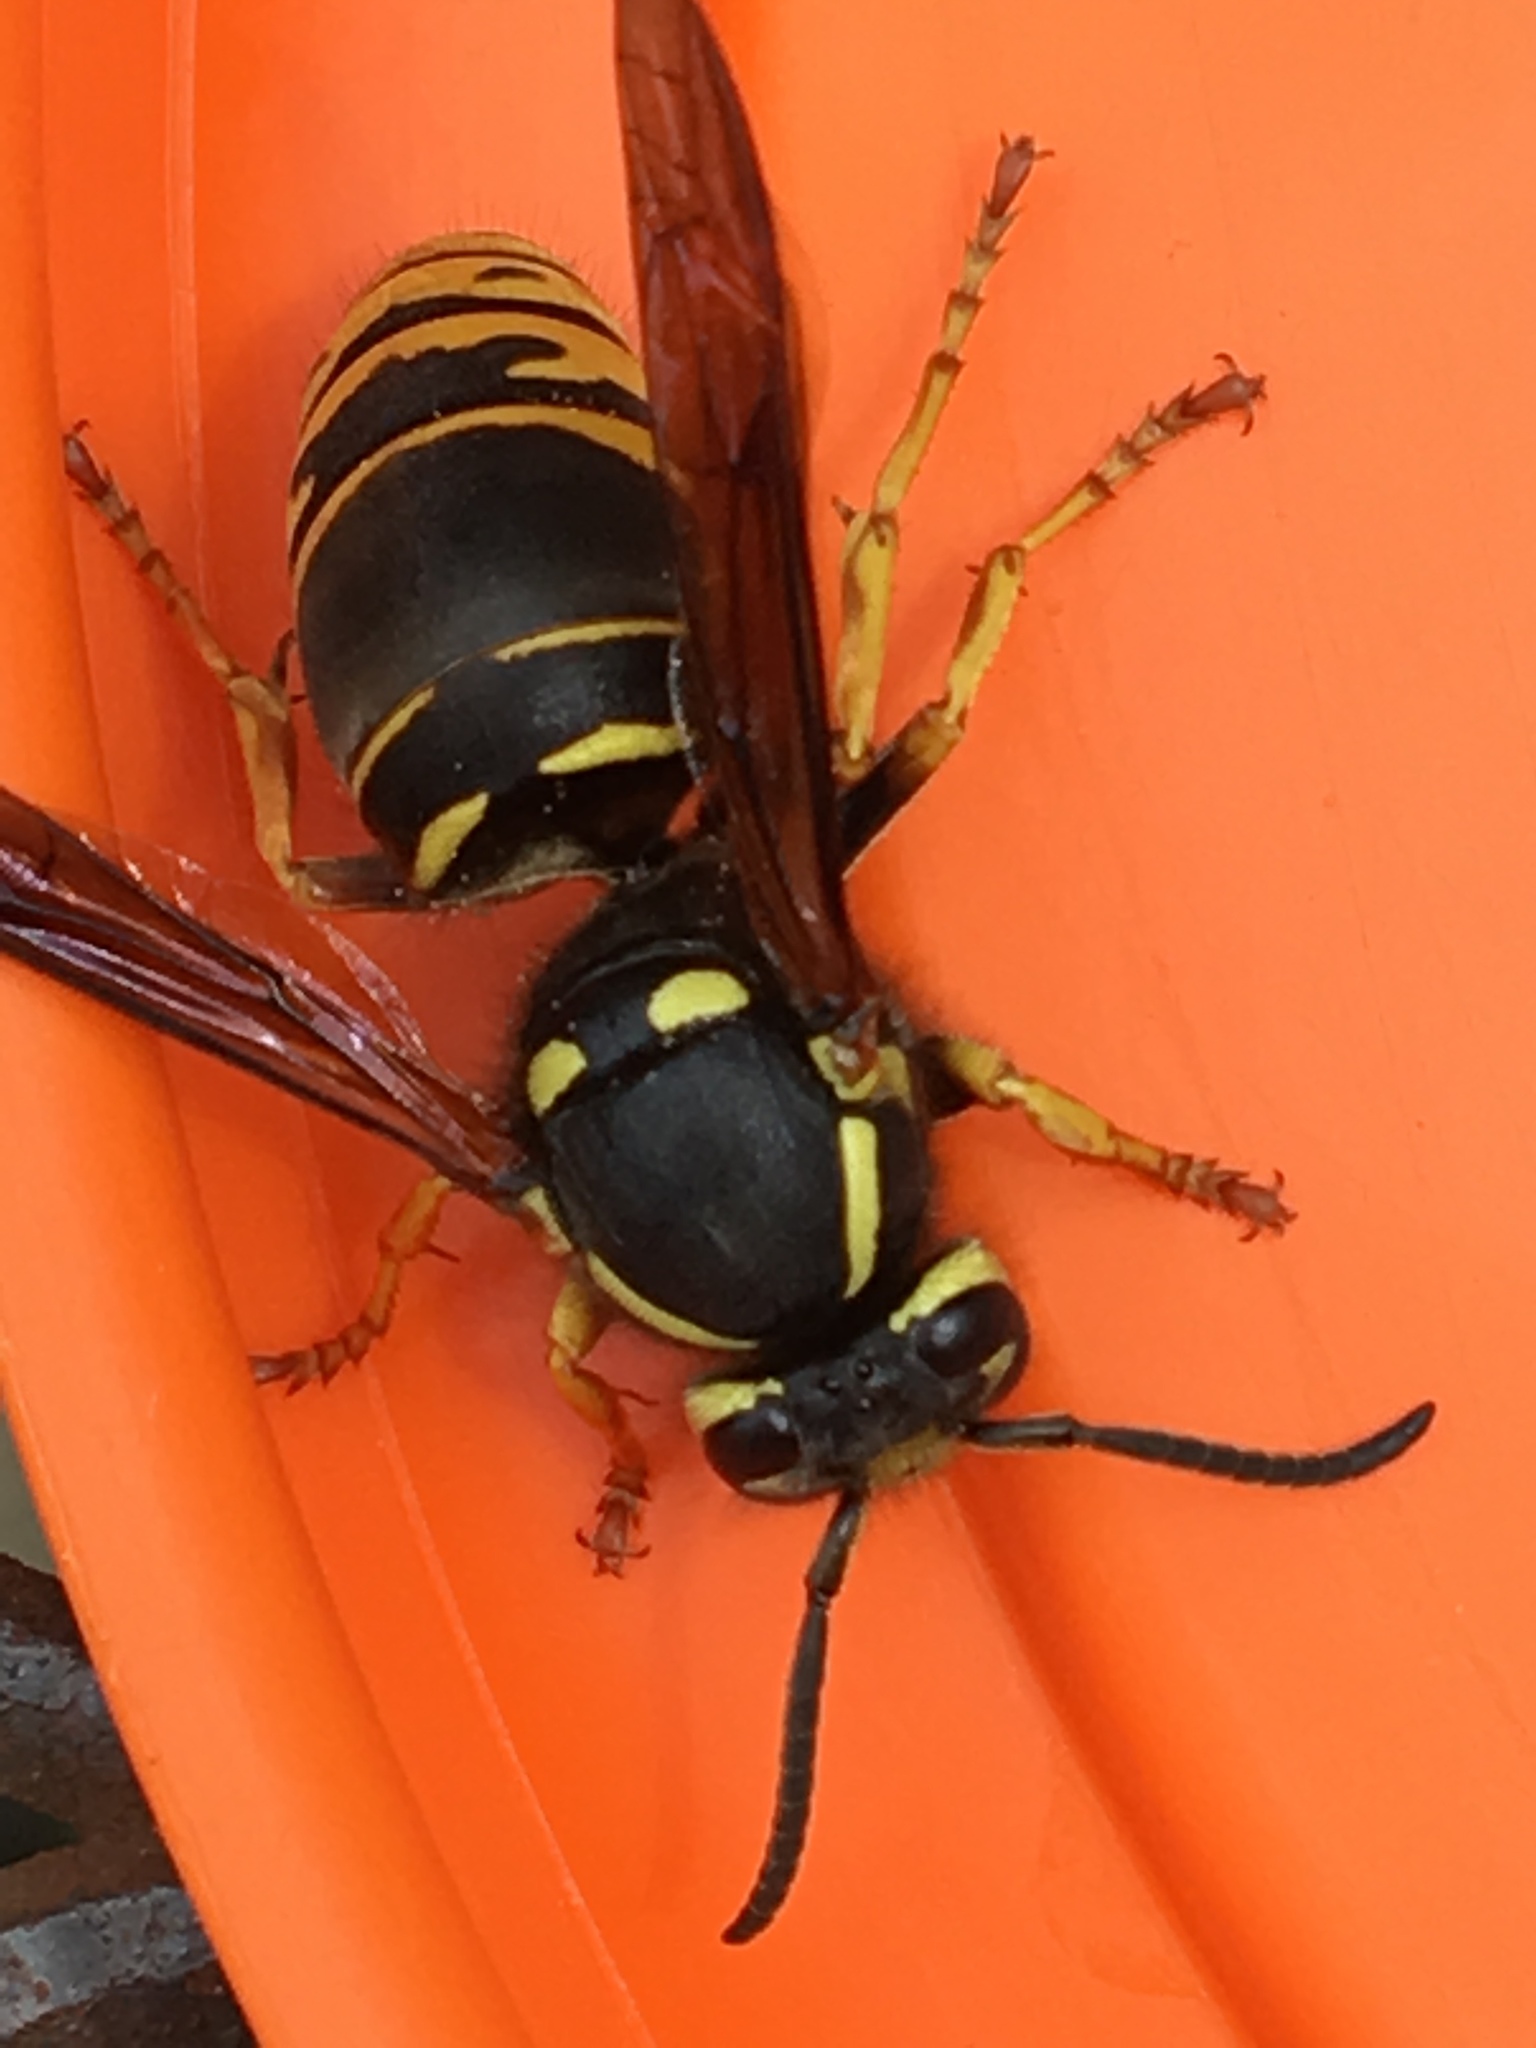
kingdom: Animalia
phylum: Arthropoda
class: Insecta
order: Hymenoptera
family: Vespidae
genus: Vespula
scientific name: Vespula vidua
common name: Widow yellowjacket
